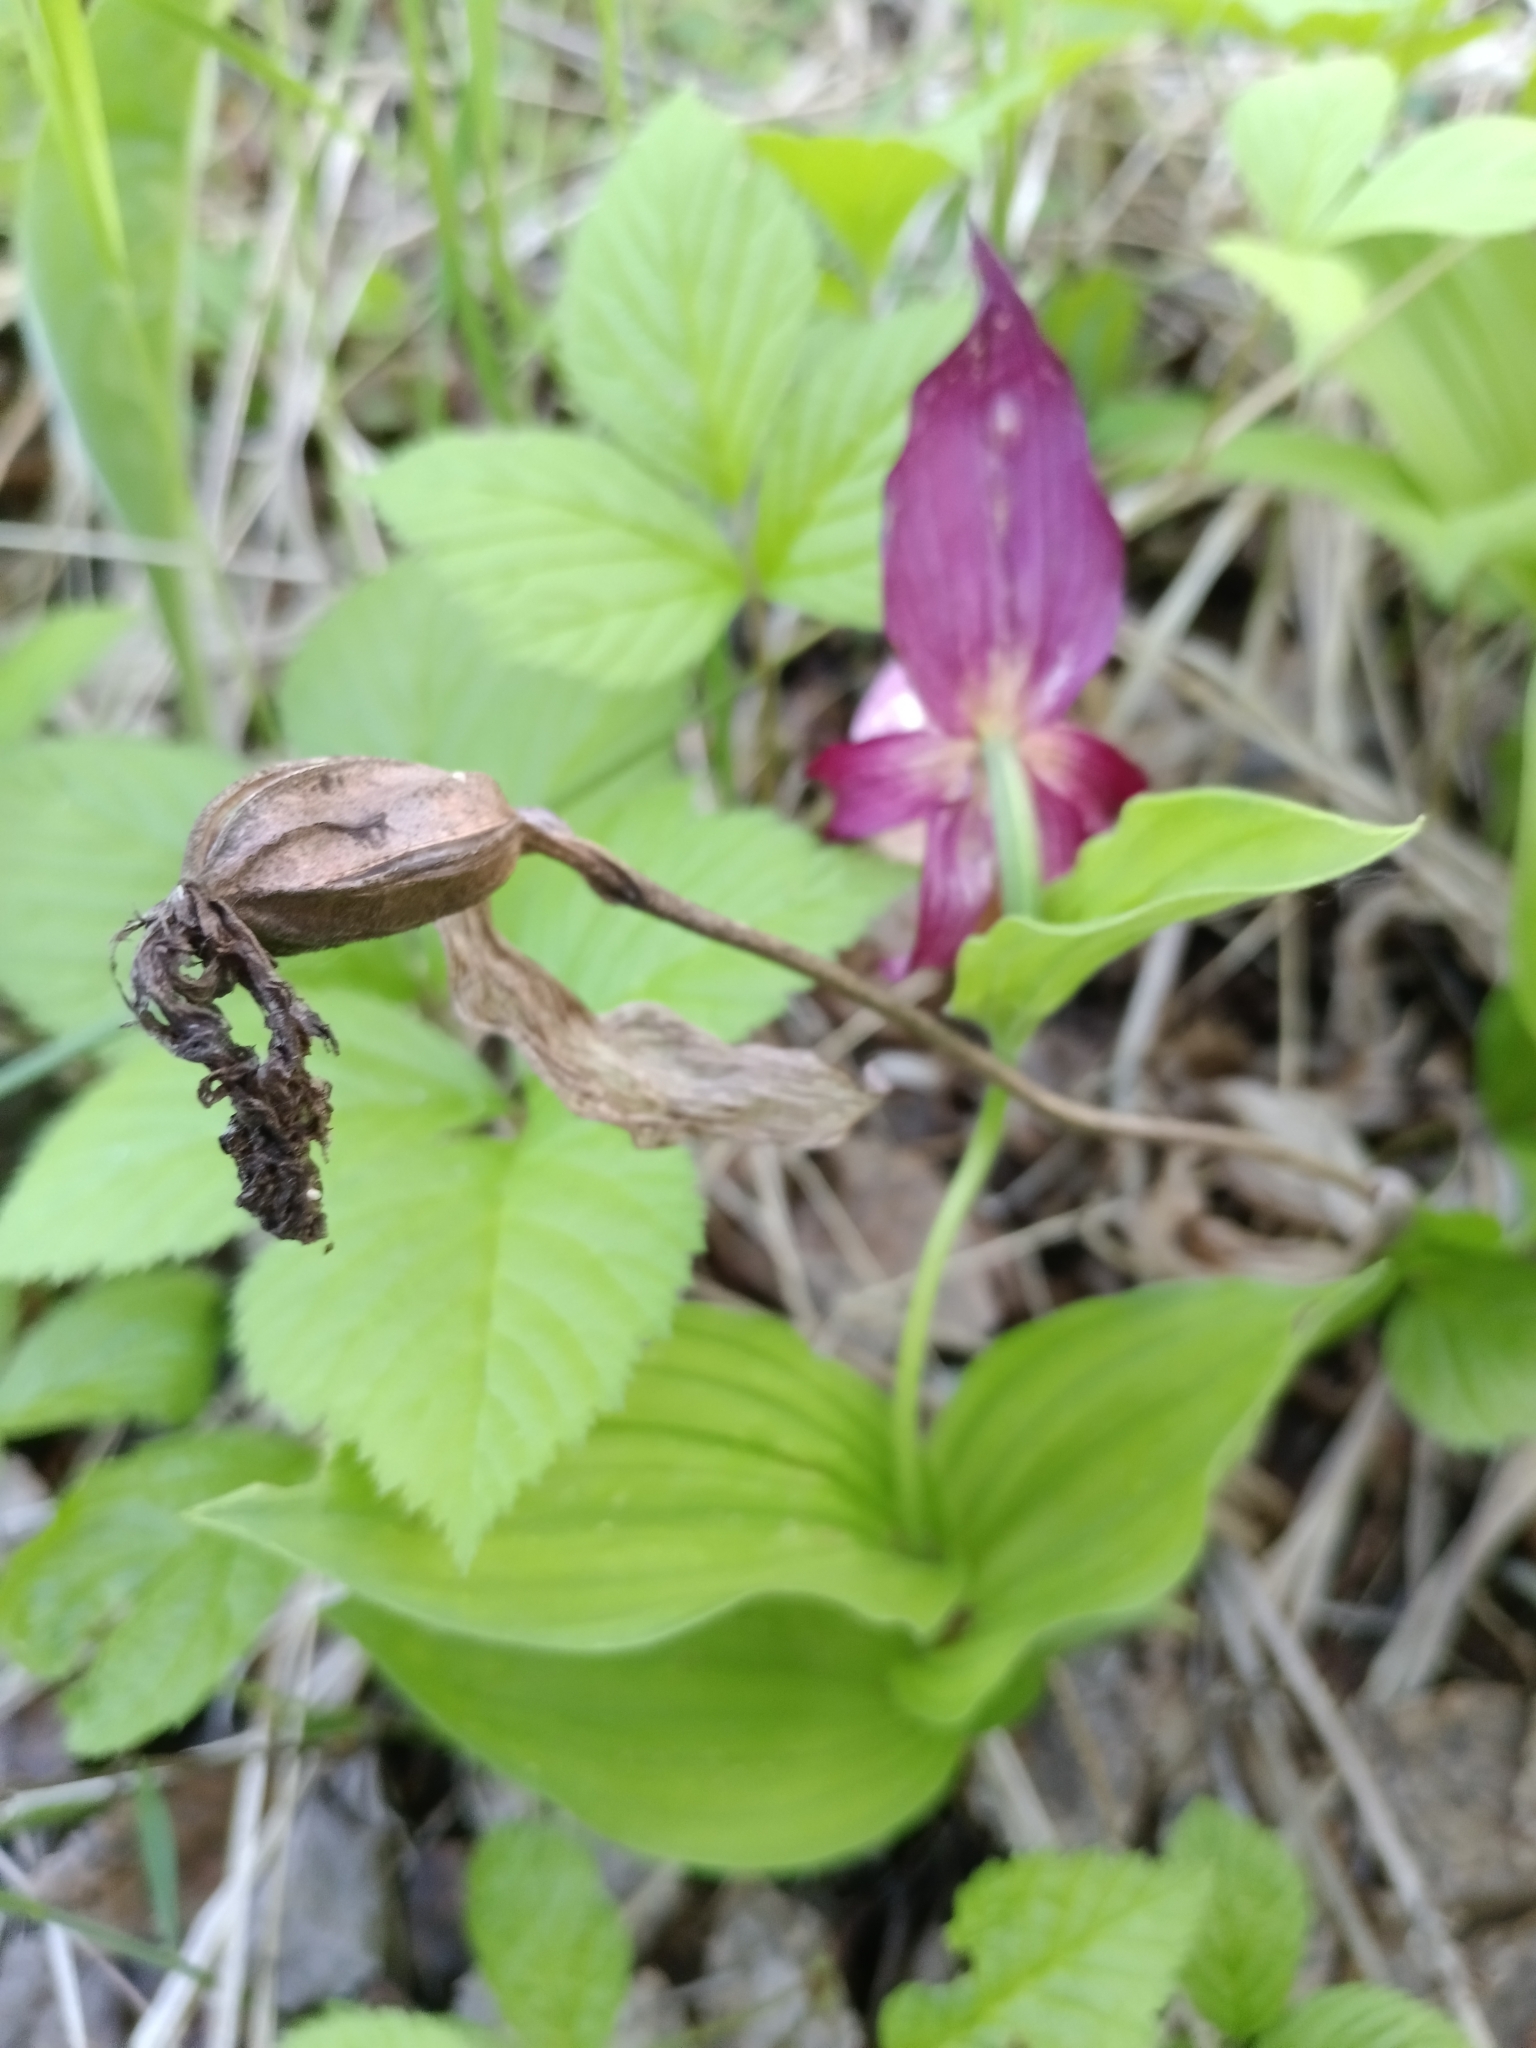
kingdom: Plantae
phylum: Tracheophyta
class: Liliopsida
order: Asparagales
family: Orchidaceae
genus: Cypripedium
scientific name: Cypripedium macranthos
